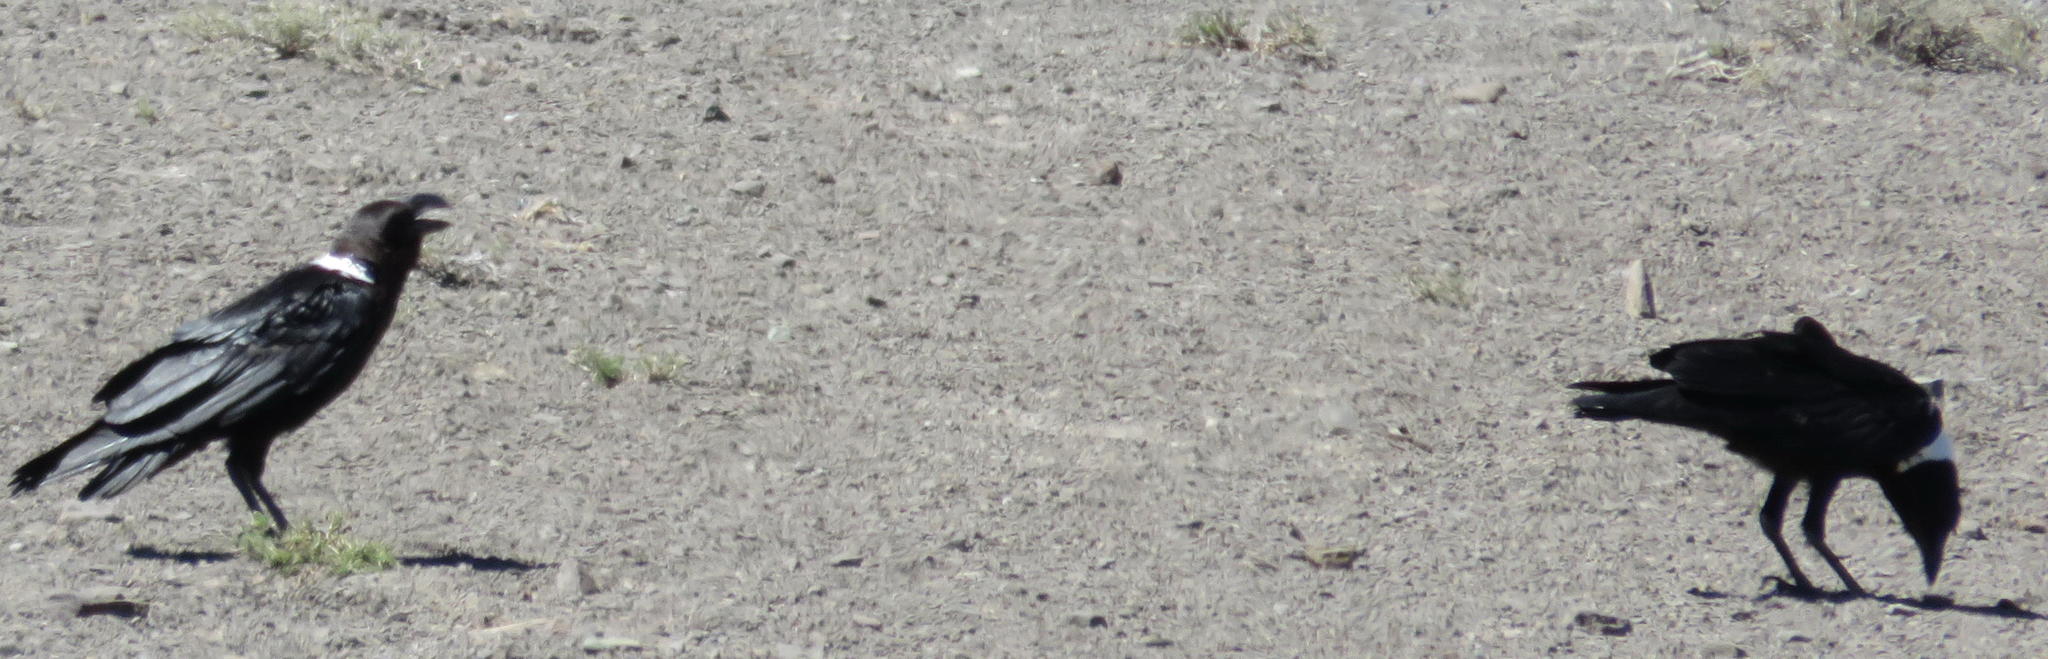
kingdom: Animalia
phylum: Chordata
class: Aves
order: Passeriformes
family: Corvidae
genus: Corvus
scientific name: Corvus albicollis
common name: White-necked raven
